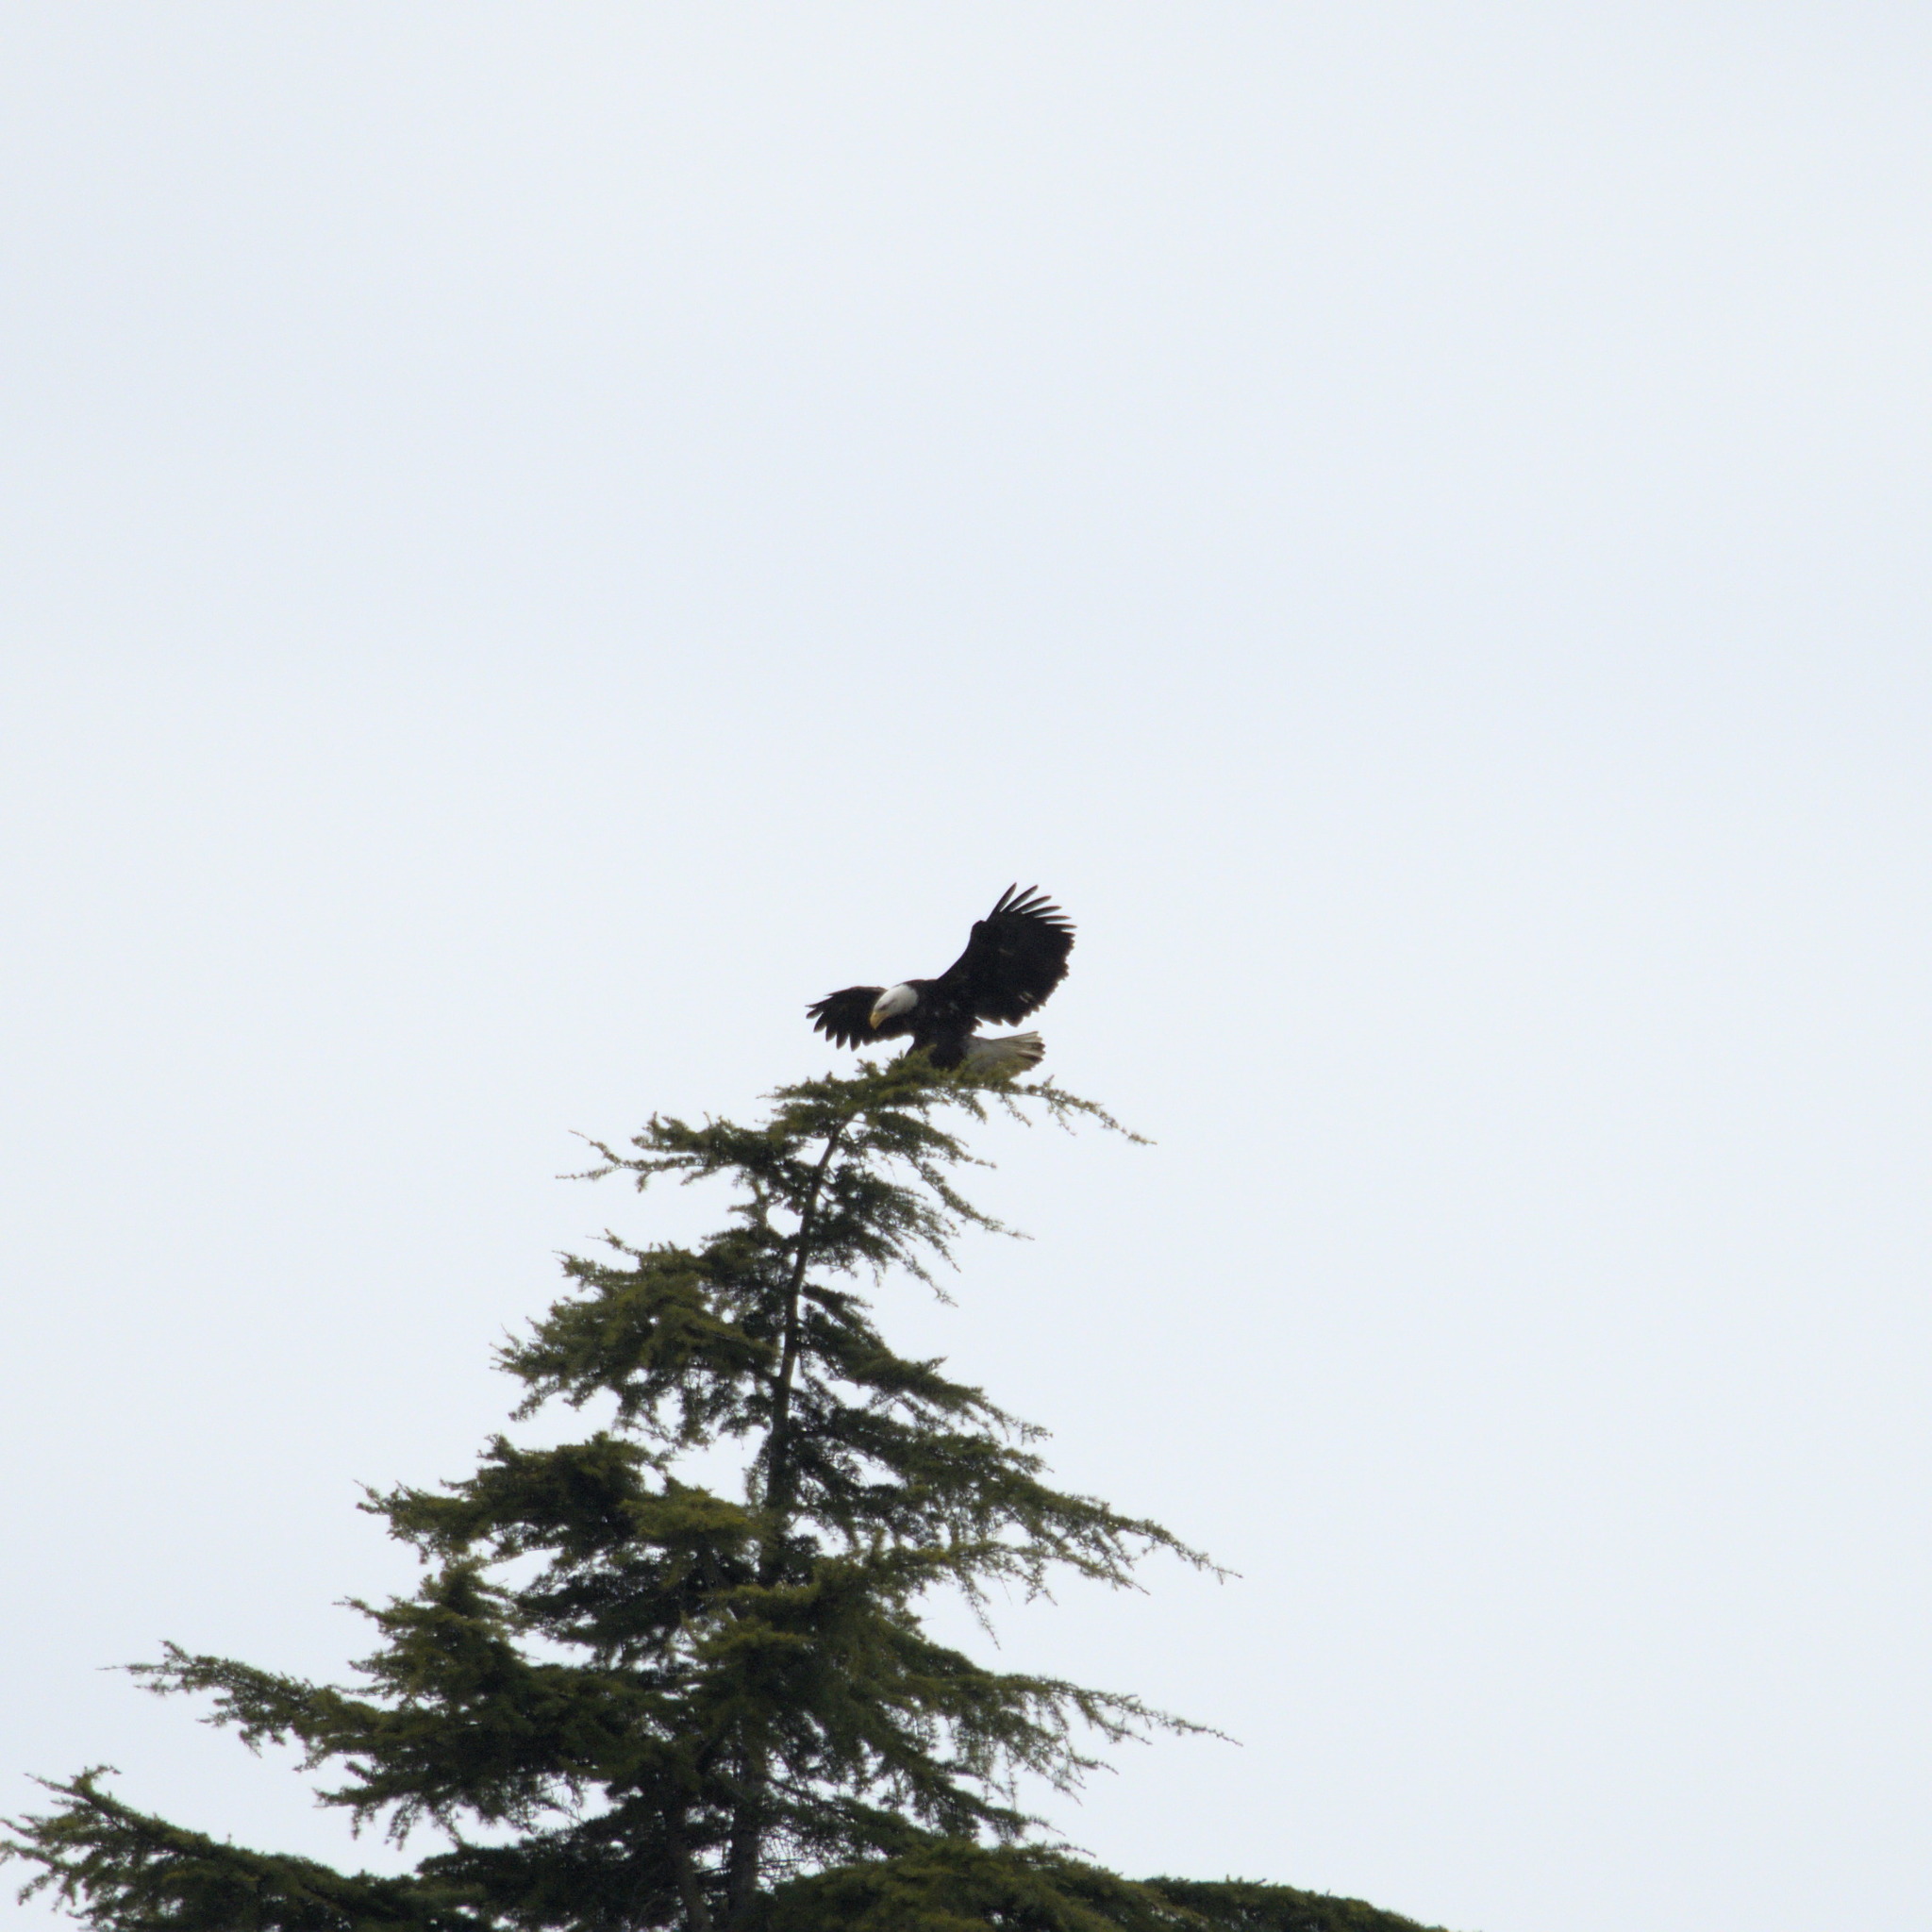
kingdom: Animalia
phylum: Chordata
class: Aves
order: Accipitriformes
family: Accipitridae
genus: Haliaeetus
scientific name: Haliaeetus leucocephalus
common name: Bald eagle
